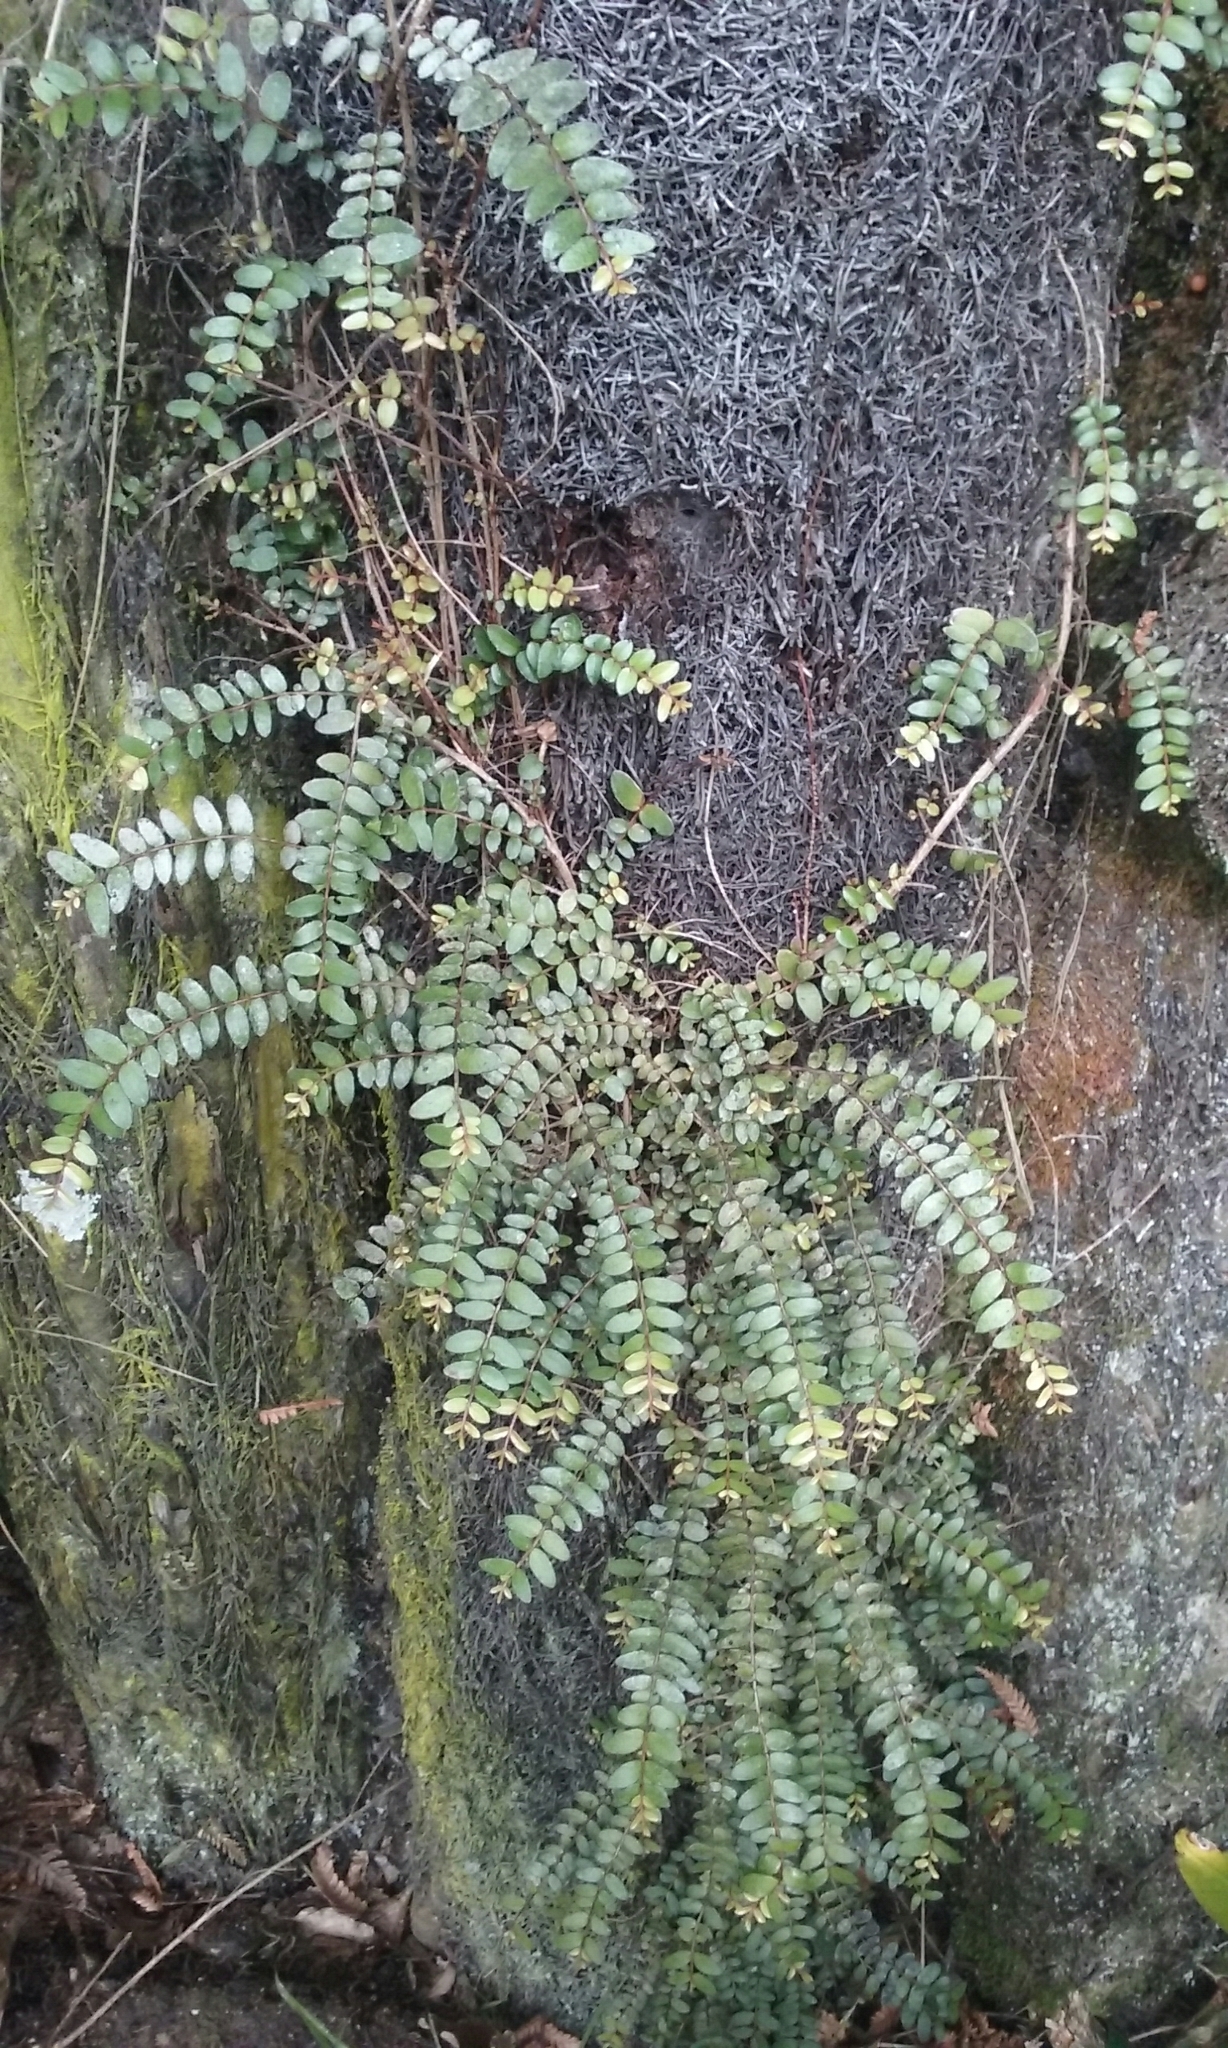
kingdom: Plantae
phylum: Tracheophyta
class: Magnoliopsida
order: Myrtales
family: Myrtaceae
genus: Metrosideros
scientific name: Metrosideros diffusa
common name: Small ratavine
